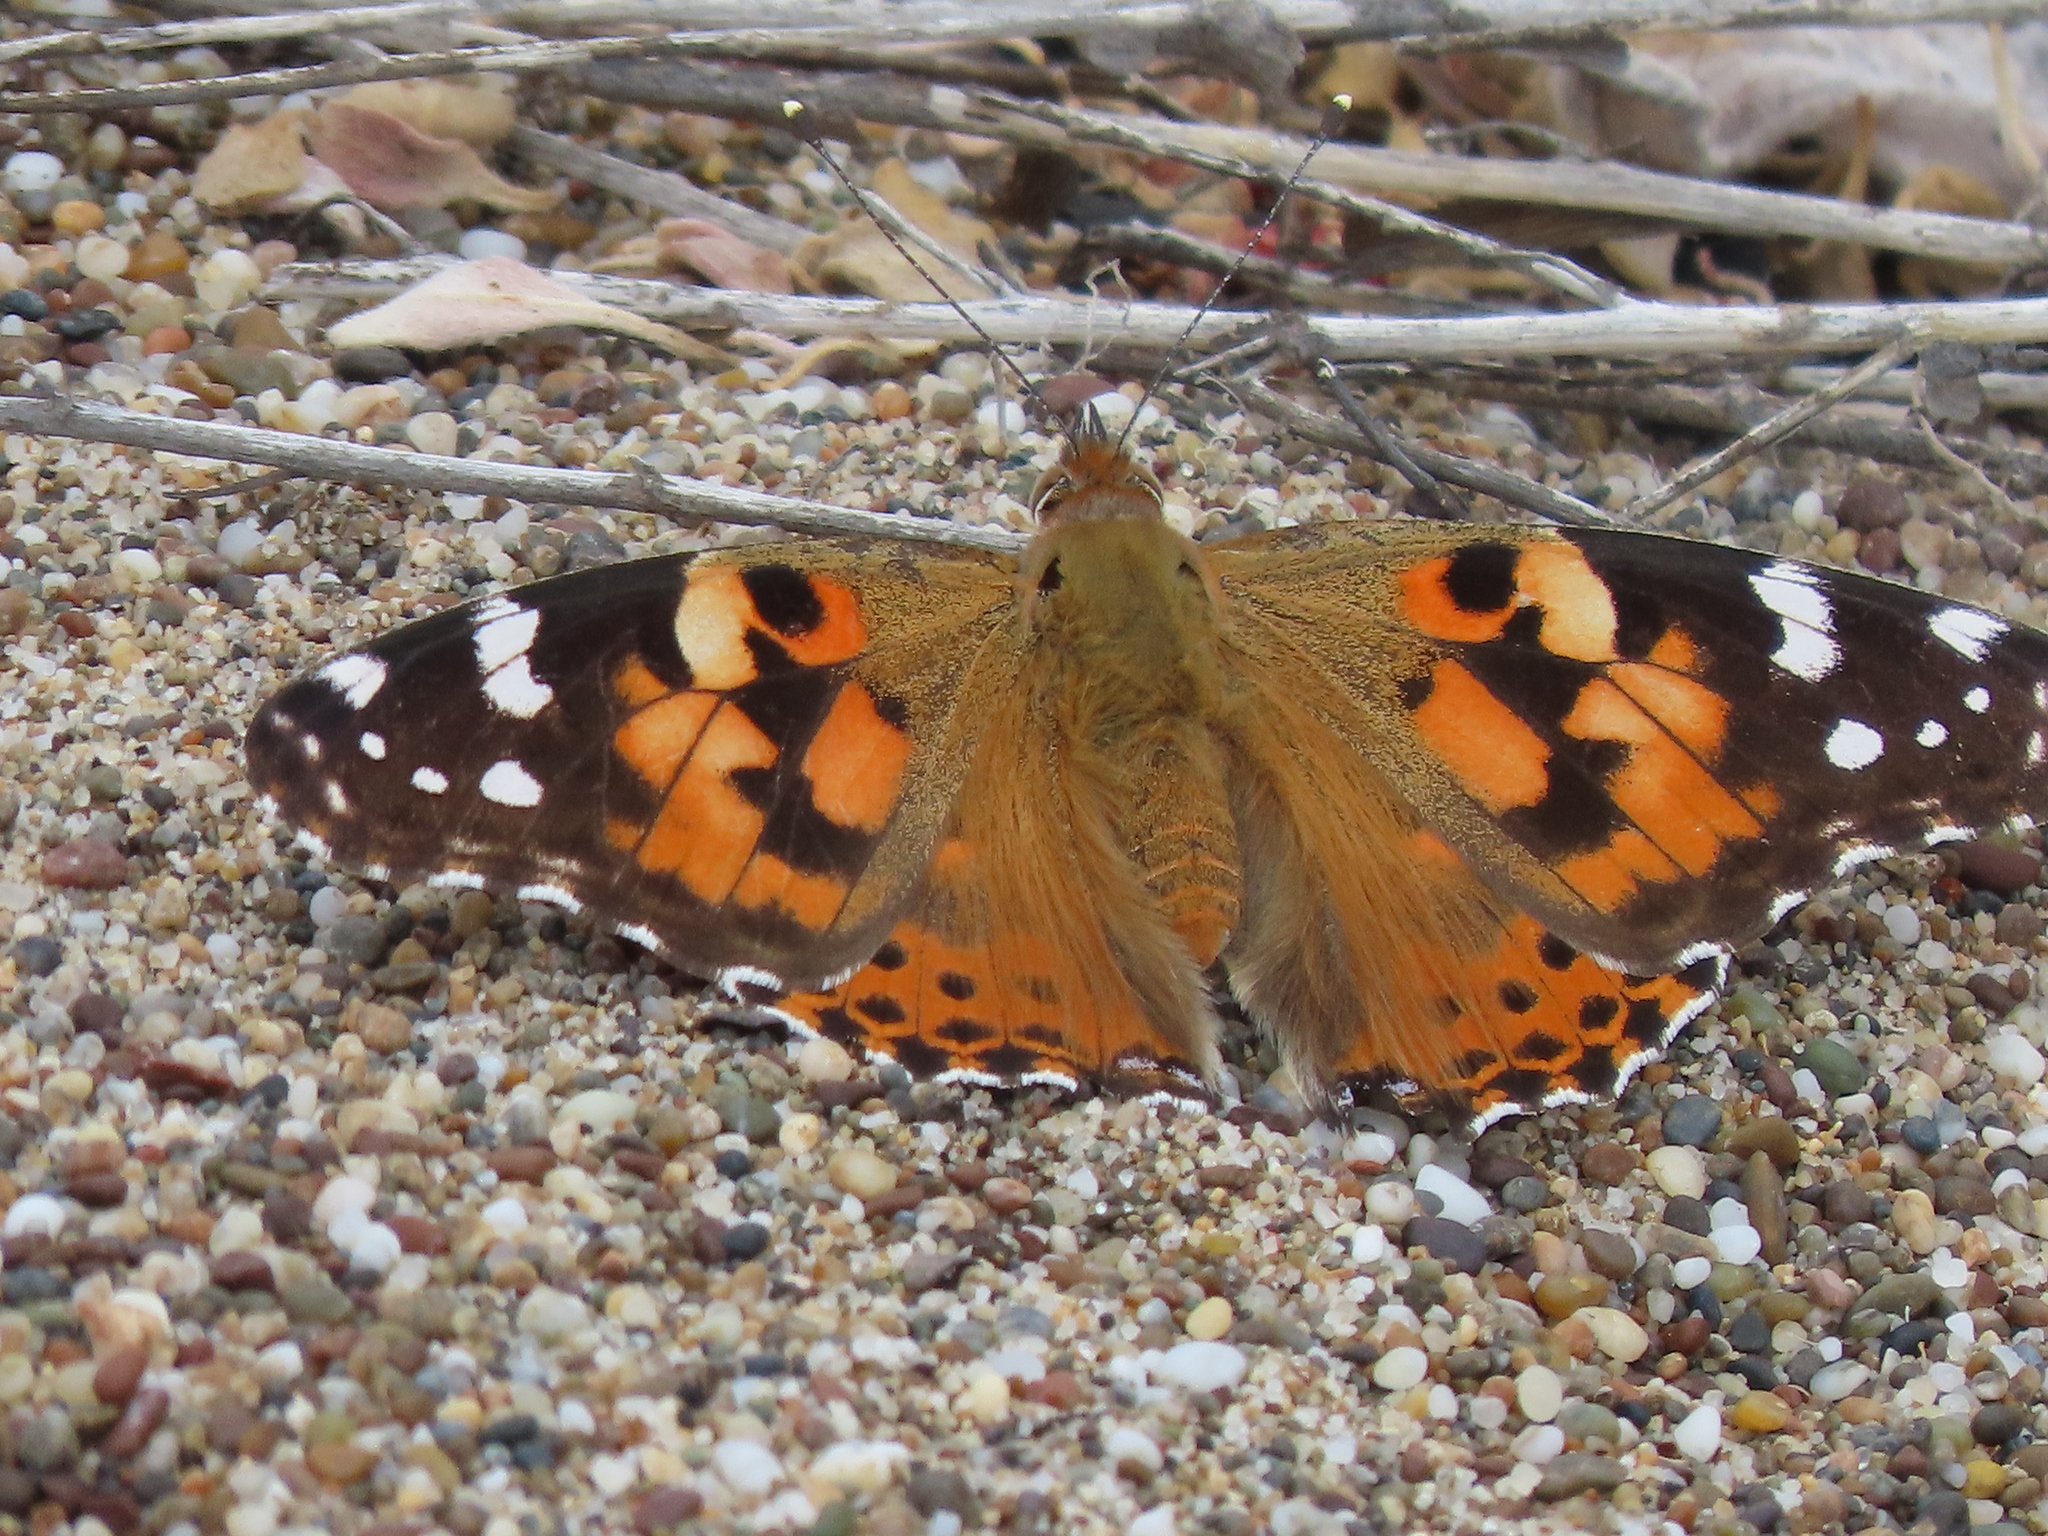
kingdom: Animalia
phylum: Arthropoda
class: Insecta
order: Lepidoptera
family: Nymphalidae
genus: Vanessa
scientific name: Vanessa cardui
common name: Painted lady
